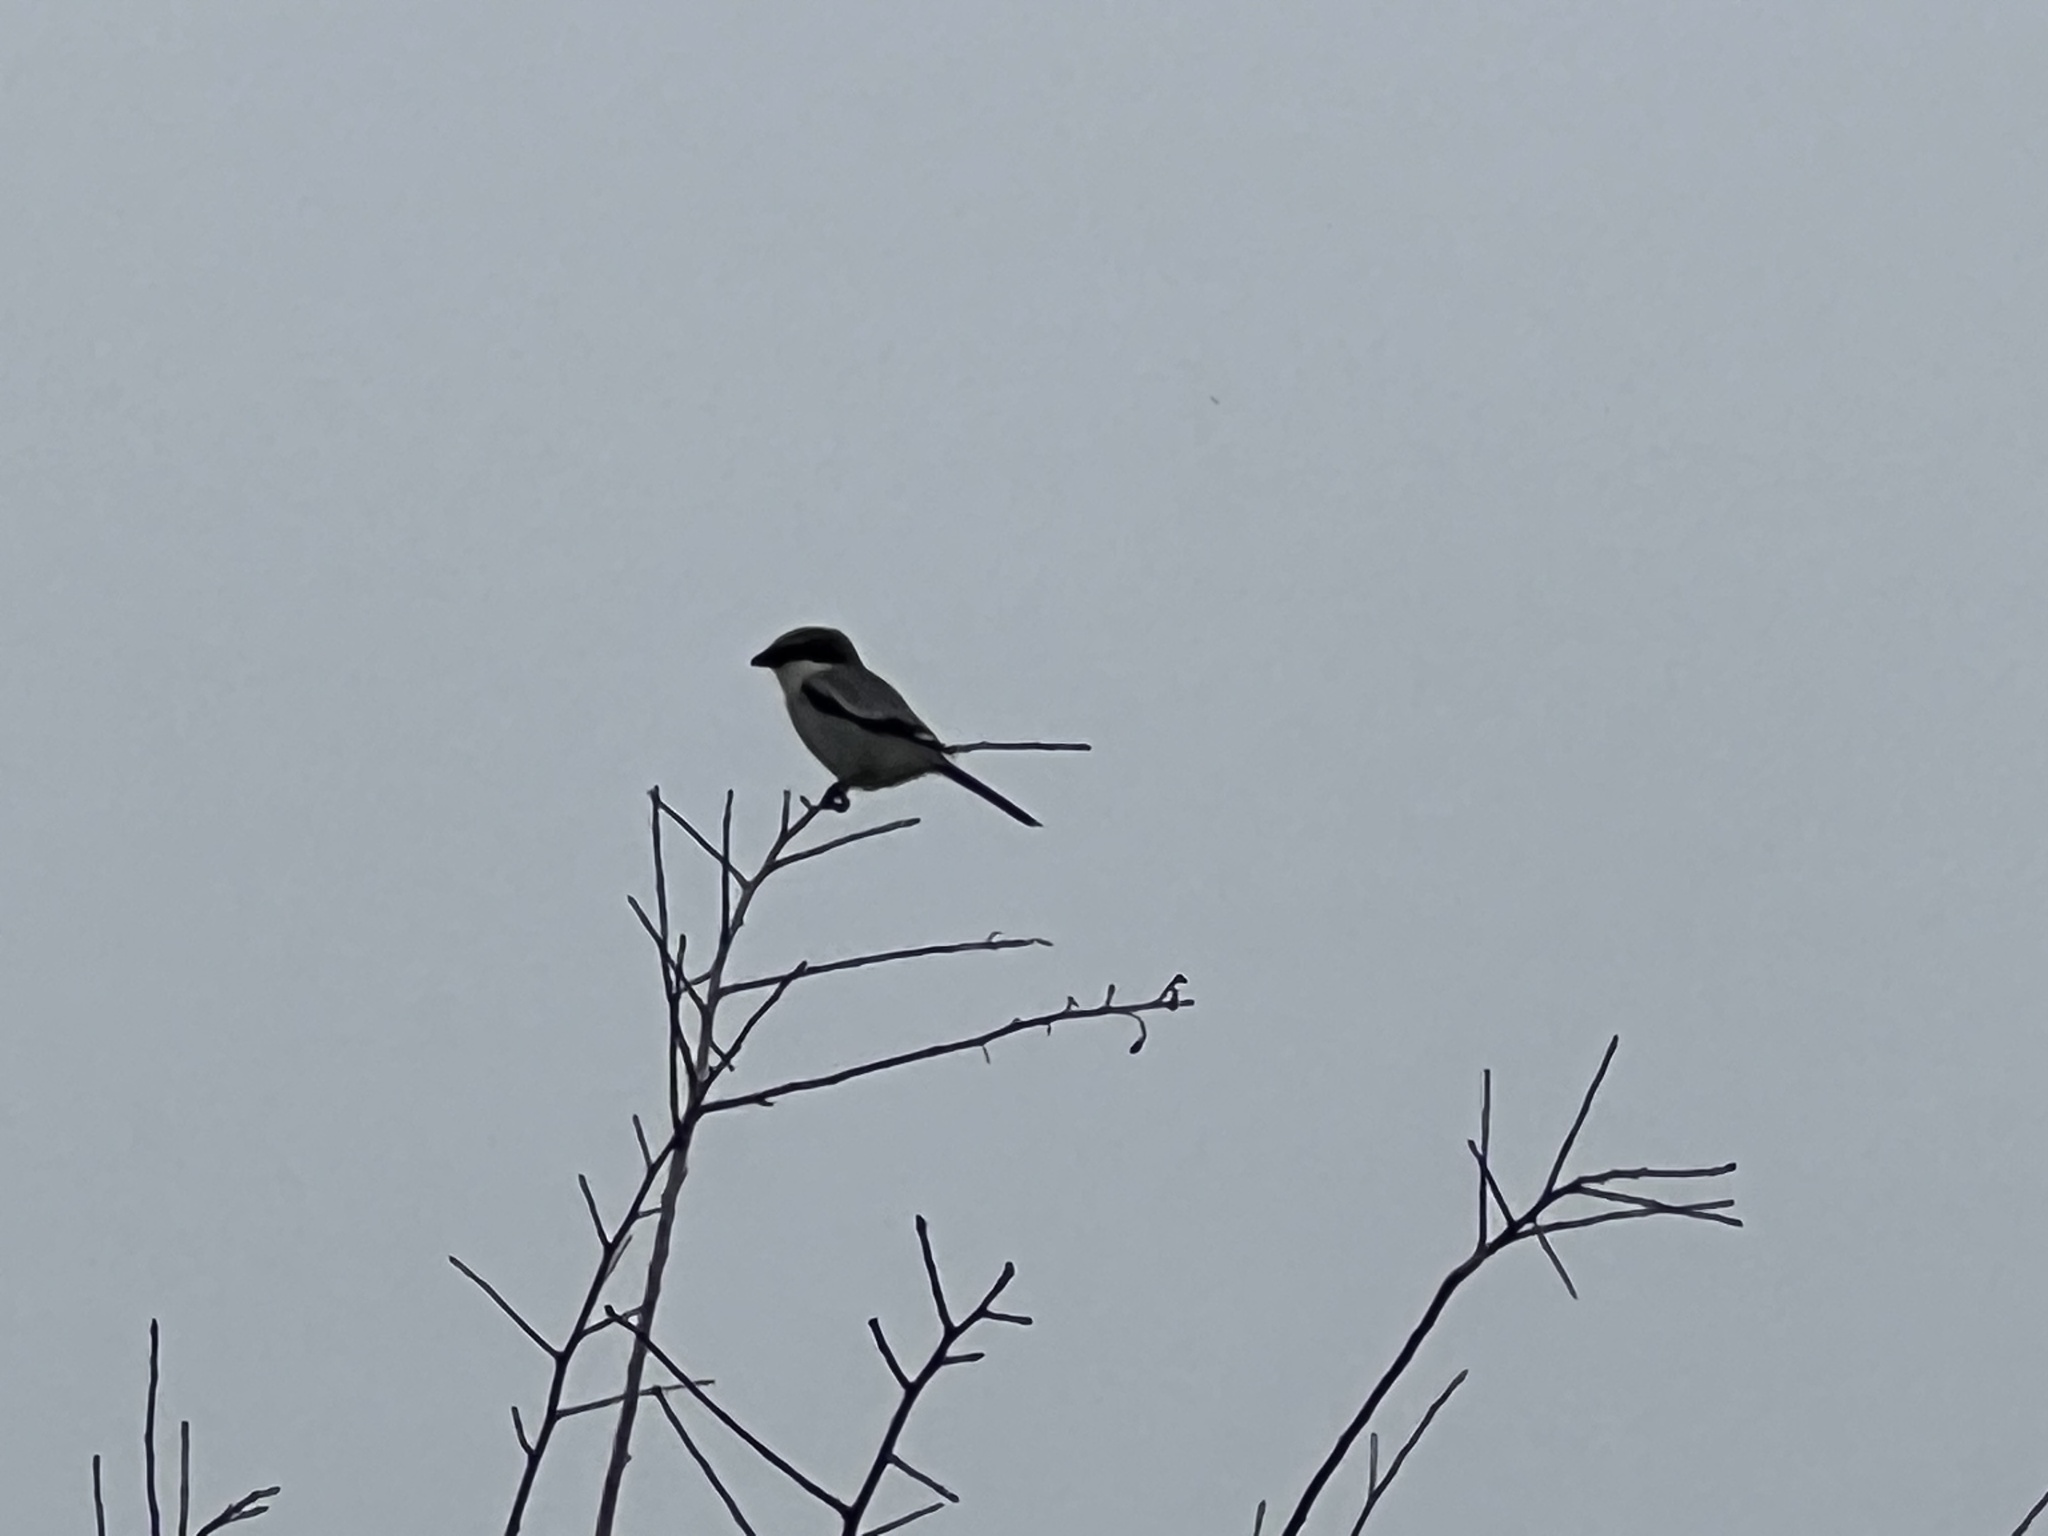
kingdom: Animalia
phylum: Chordata
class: Aves
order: Passeriformes
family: Laniidae
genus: Lanius
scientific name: Lanius ludovicianus
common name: Loggerhead shrike
